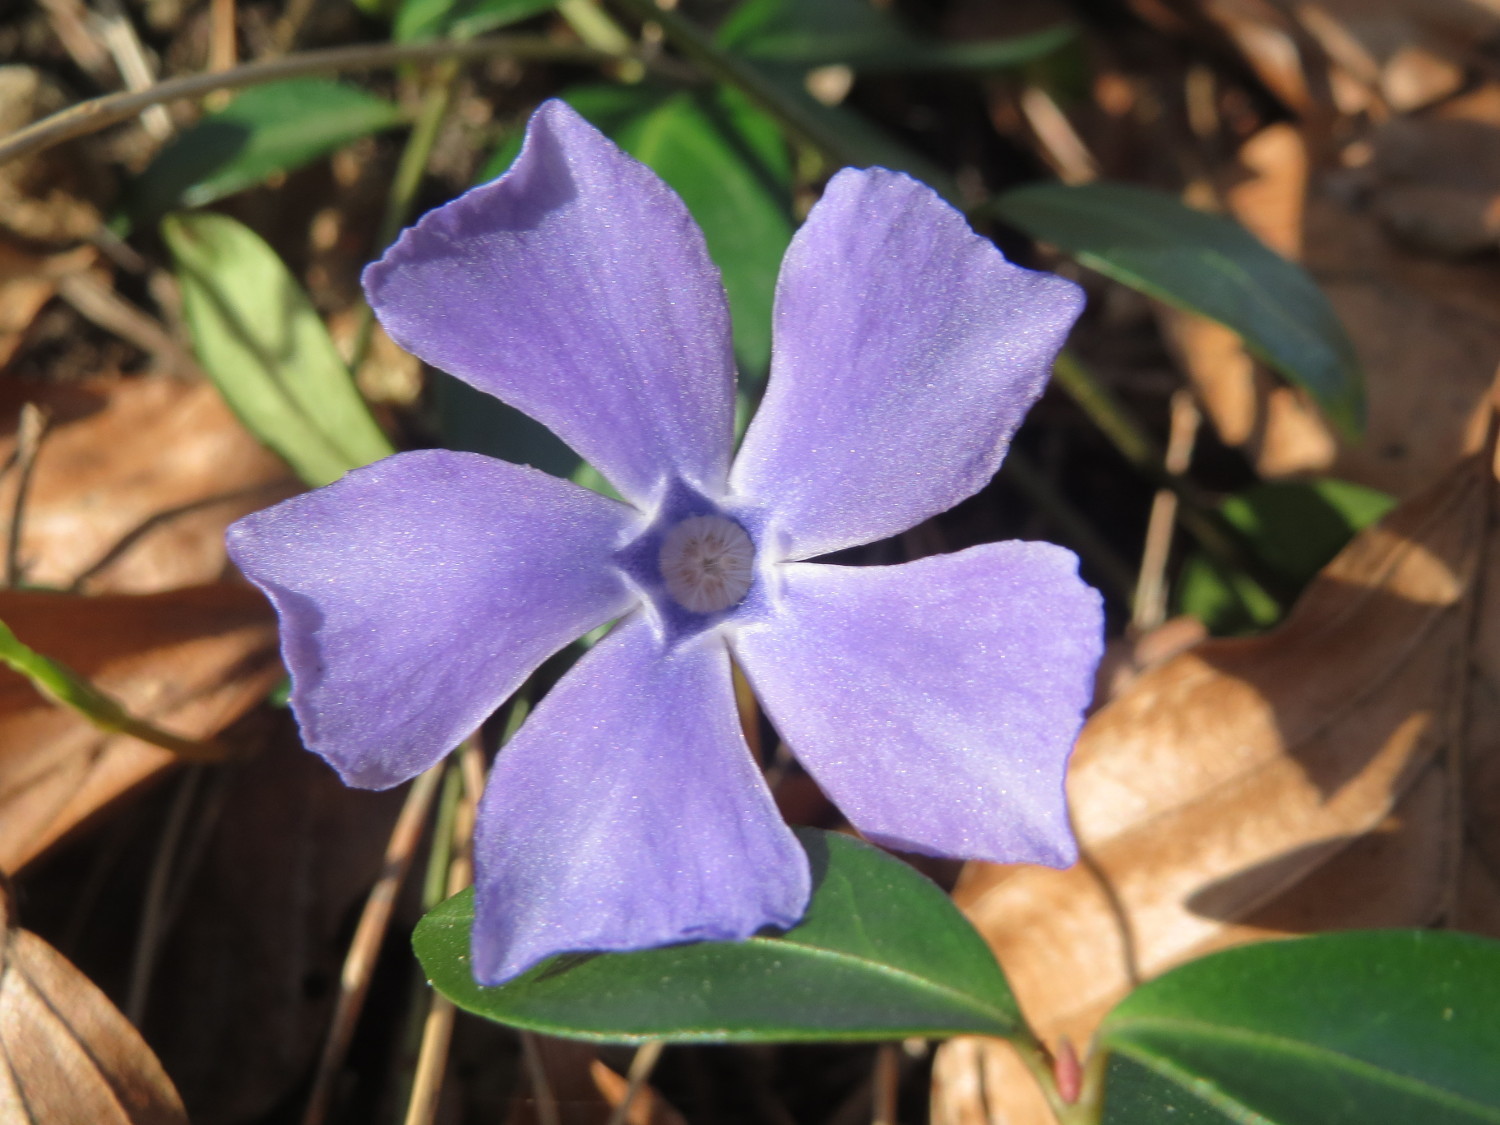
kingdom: Plantae
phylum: Tracheophyta
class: Magnoliopsida
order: Gentianales
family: Apocynaceae
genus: Vinca
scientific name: Vinca minor
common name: Lesser periwinkle
